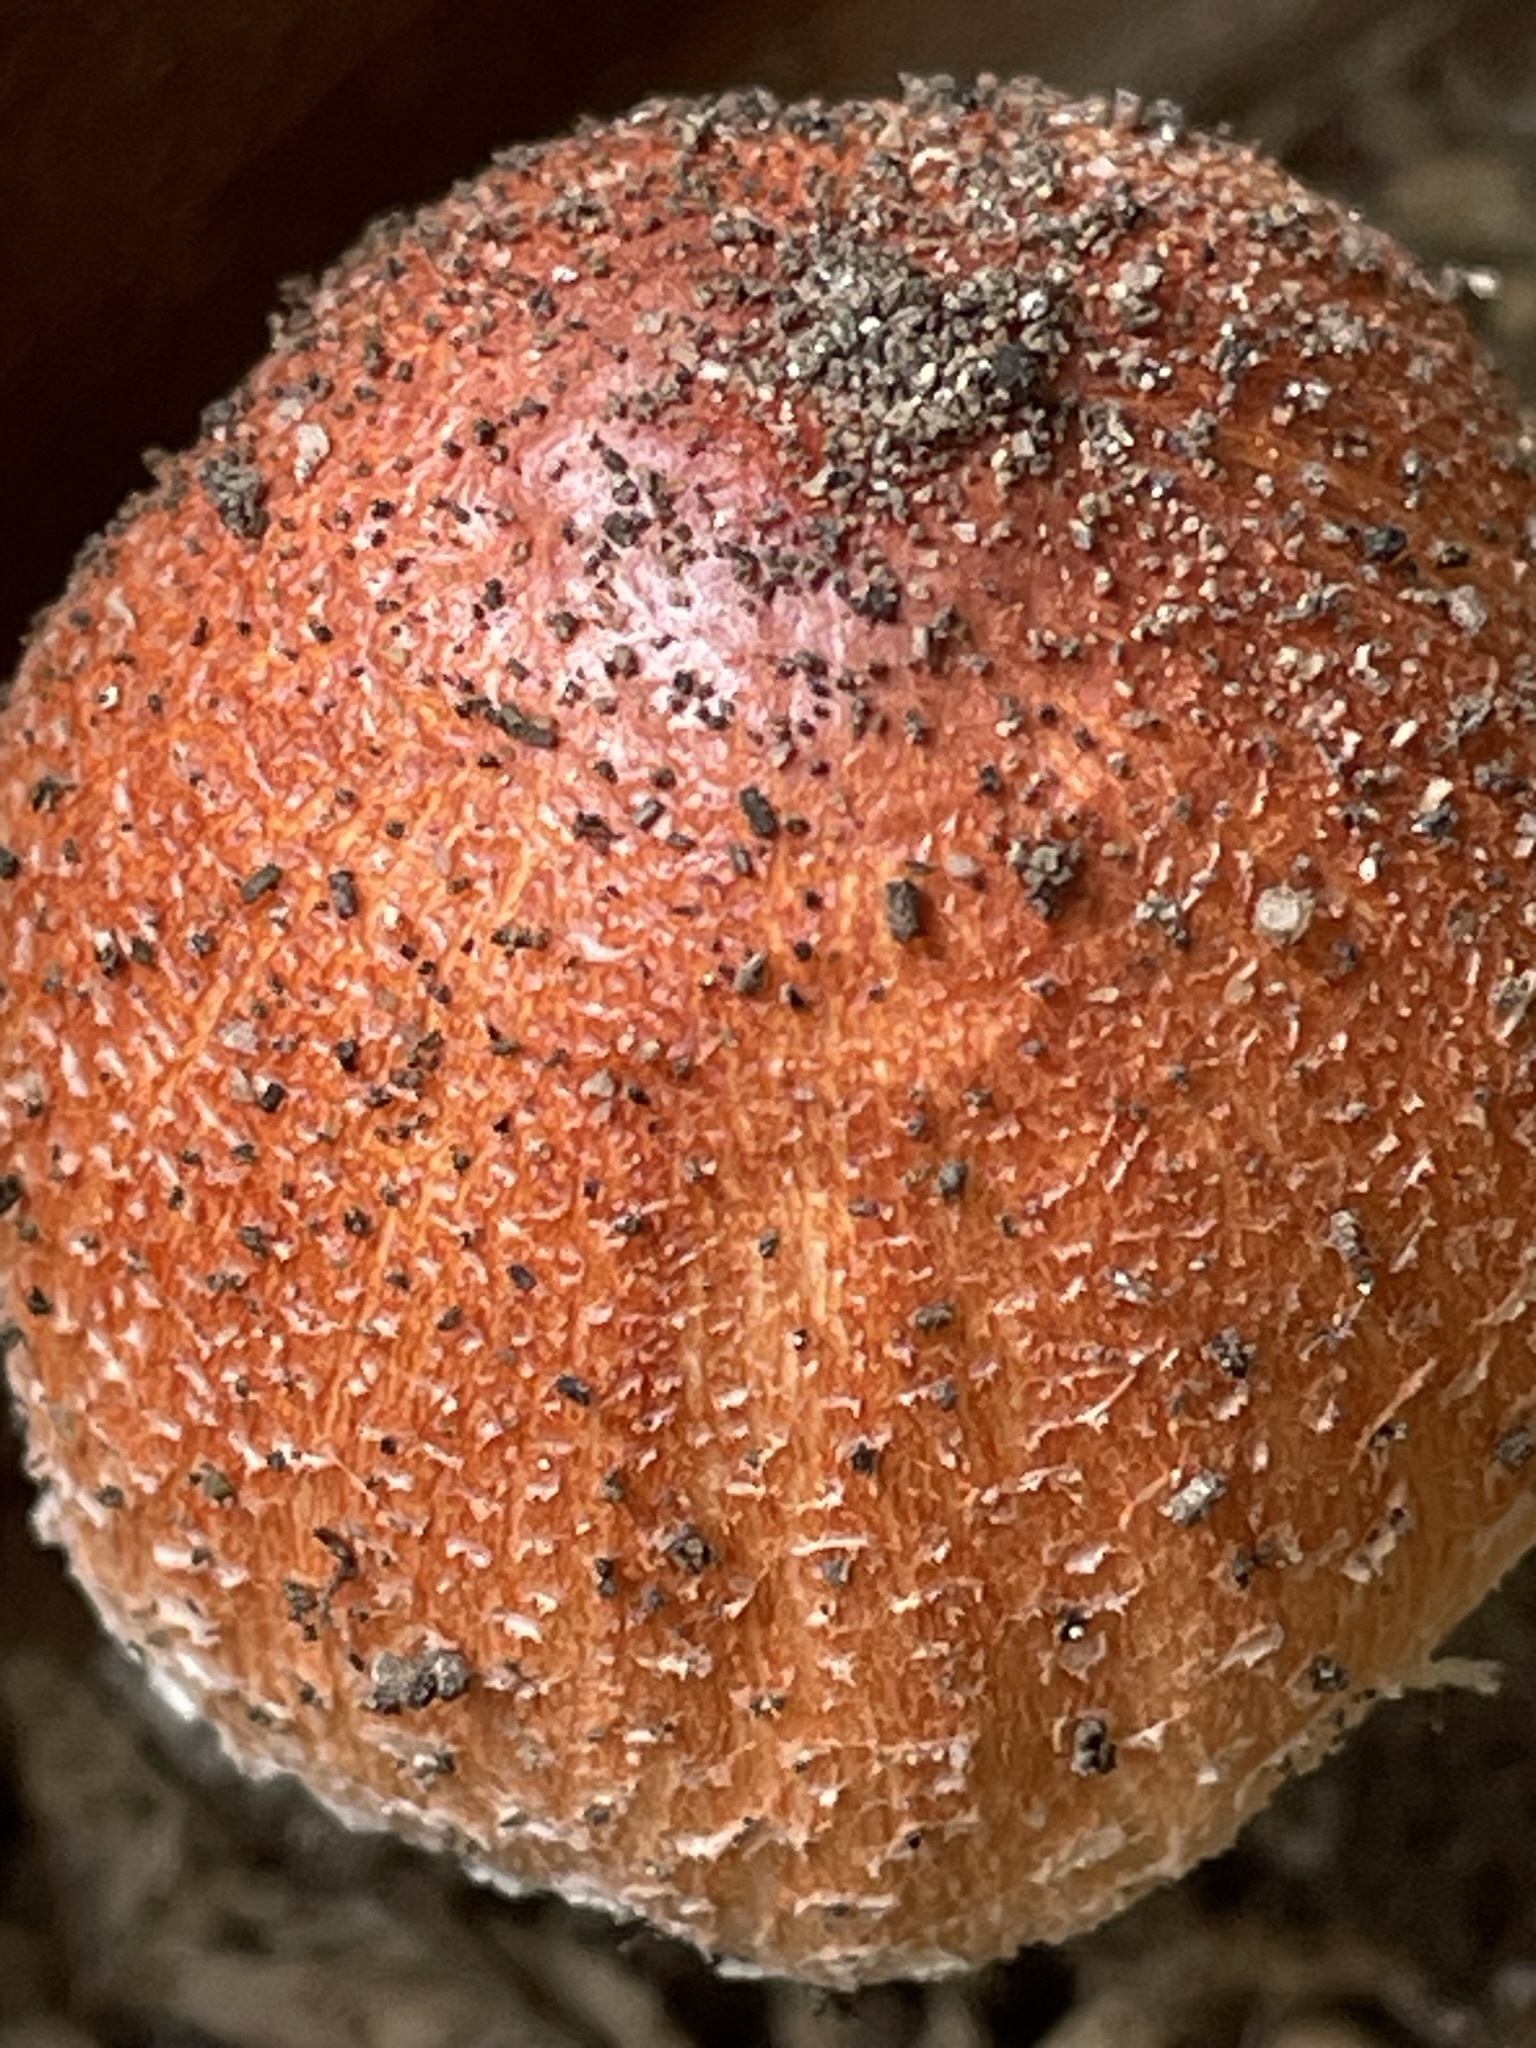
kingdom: Fungi
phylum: Basidiomycota
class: Agaricomycetes
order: Agaricales
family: Agaricaceae
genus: Leucoagaricus
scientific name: Leucoagaricus rubrotinctus
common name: Ruby dapperling
